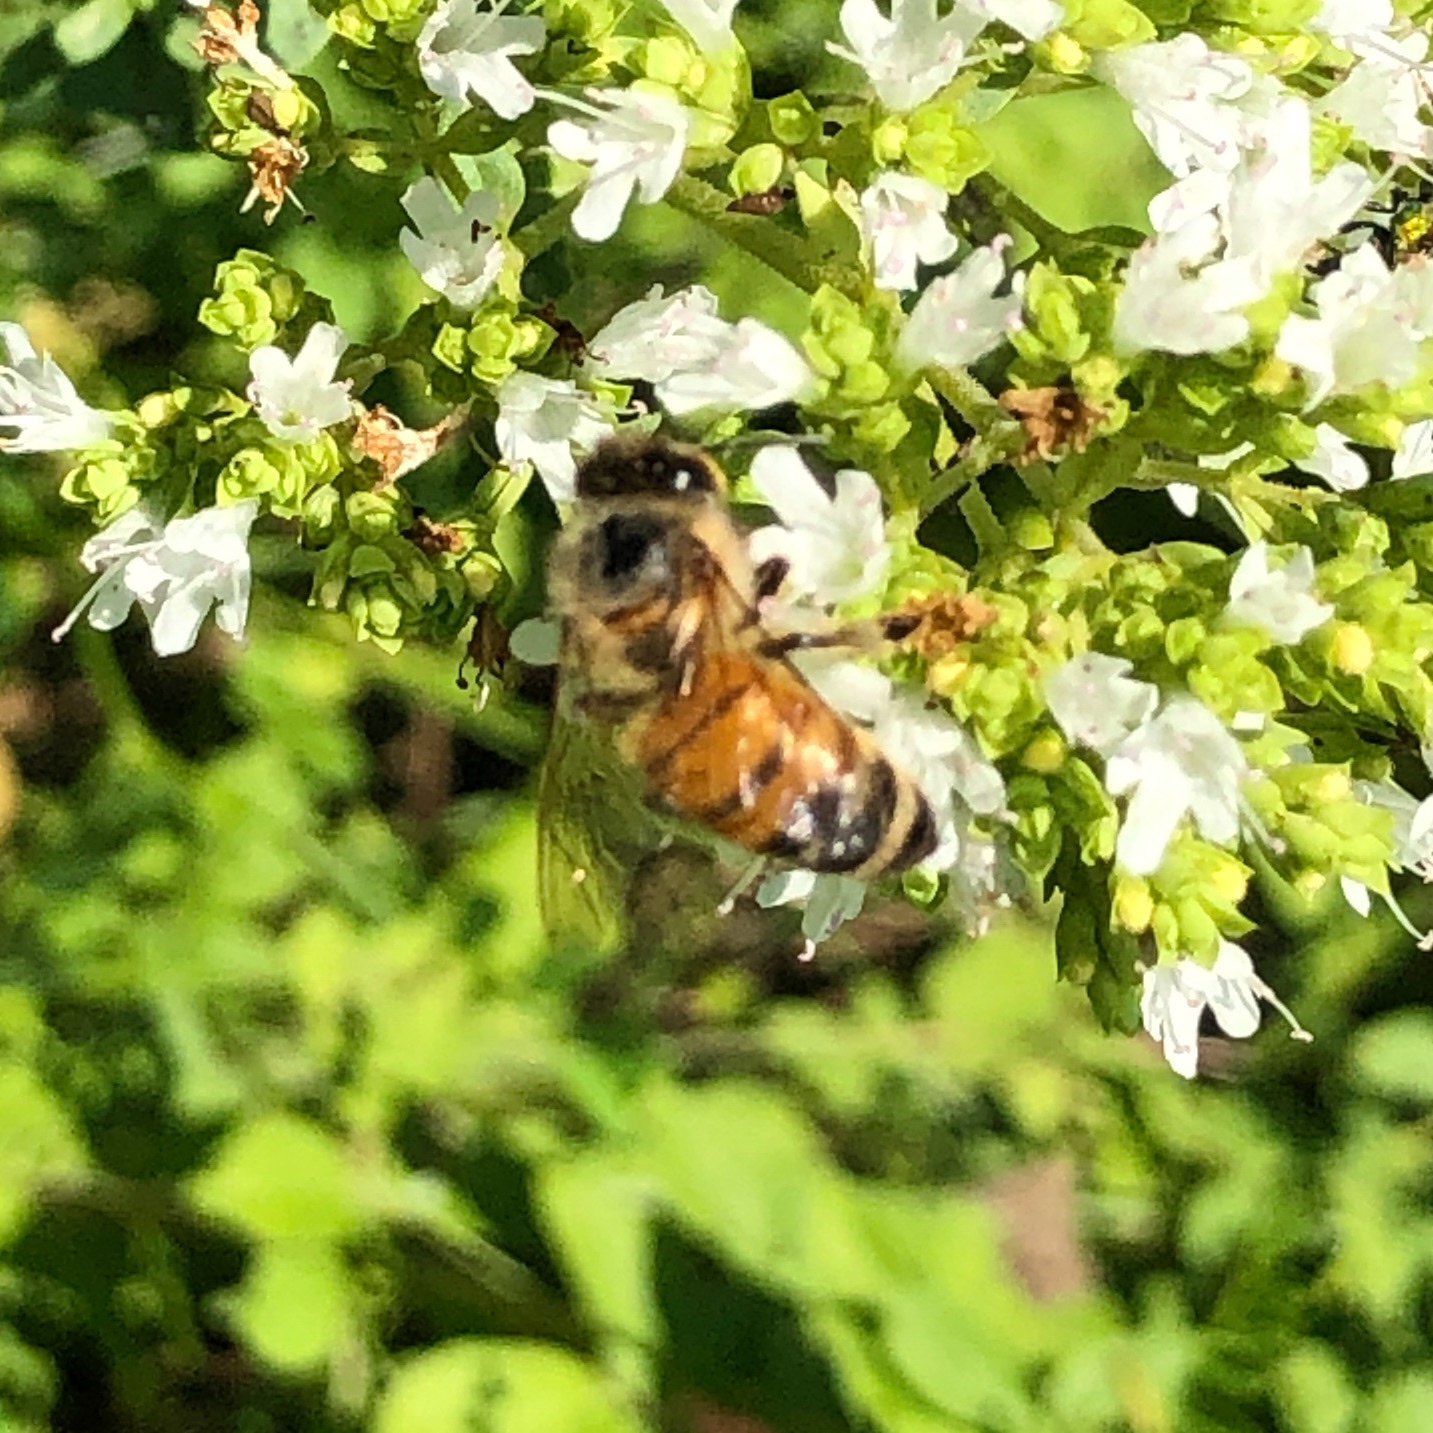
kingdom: Animalia
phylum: Arthropoda
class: Insecta
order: Hymenoptera
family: Apidae
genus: Apis
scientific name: Apis mellifera
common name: Honey bee
